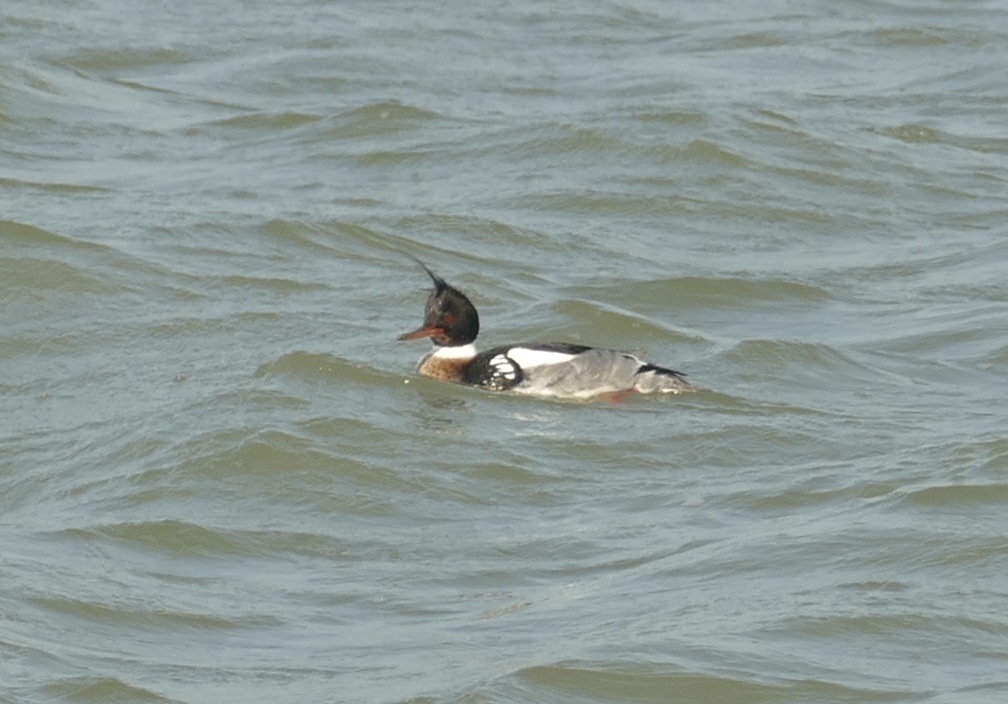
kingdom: Animalia
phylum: Chordata
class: Aves
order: Anseriformes
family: Anatidae
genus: Mergus
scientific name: Mergus serrator
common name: Red-breasted merganser
